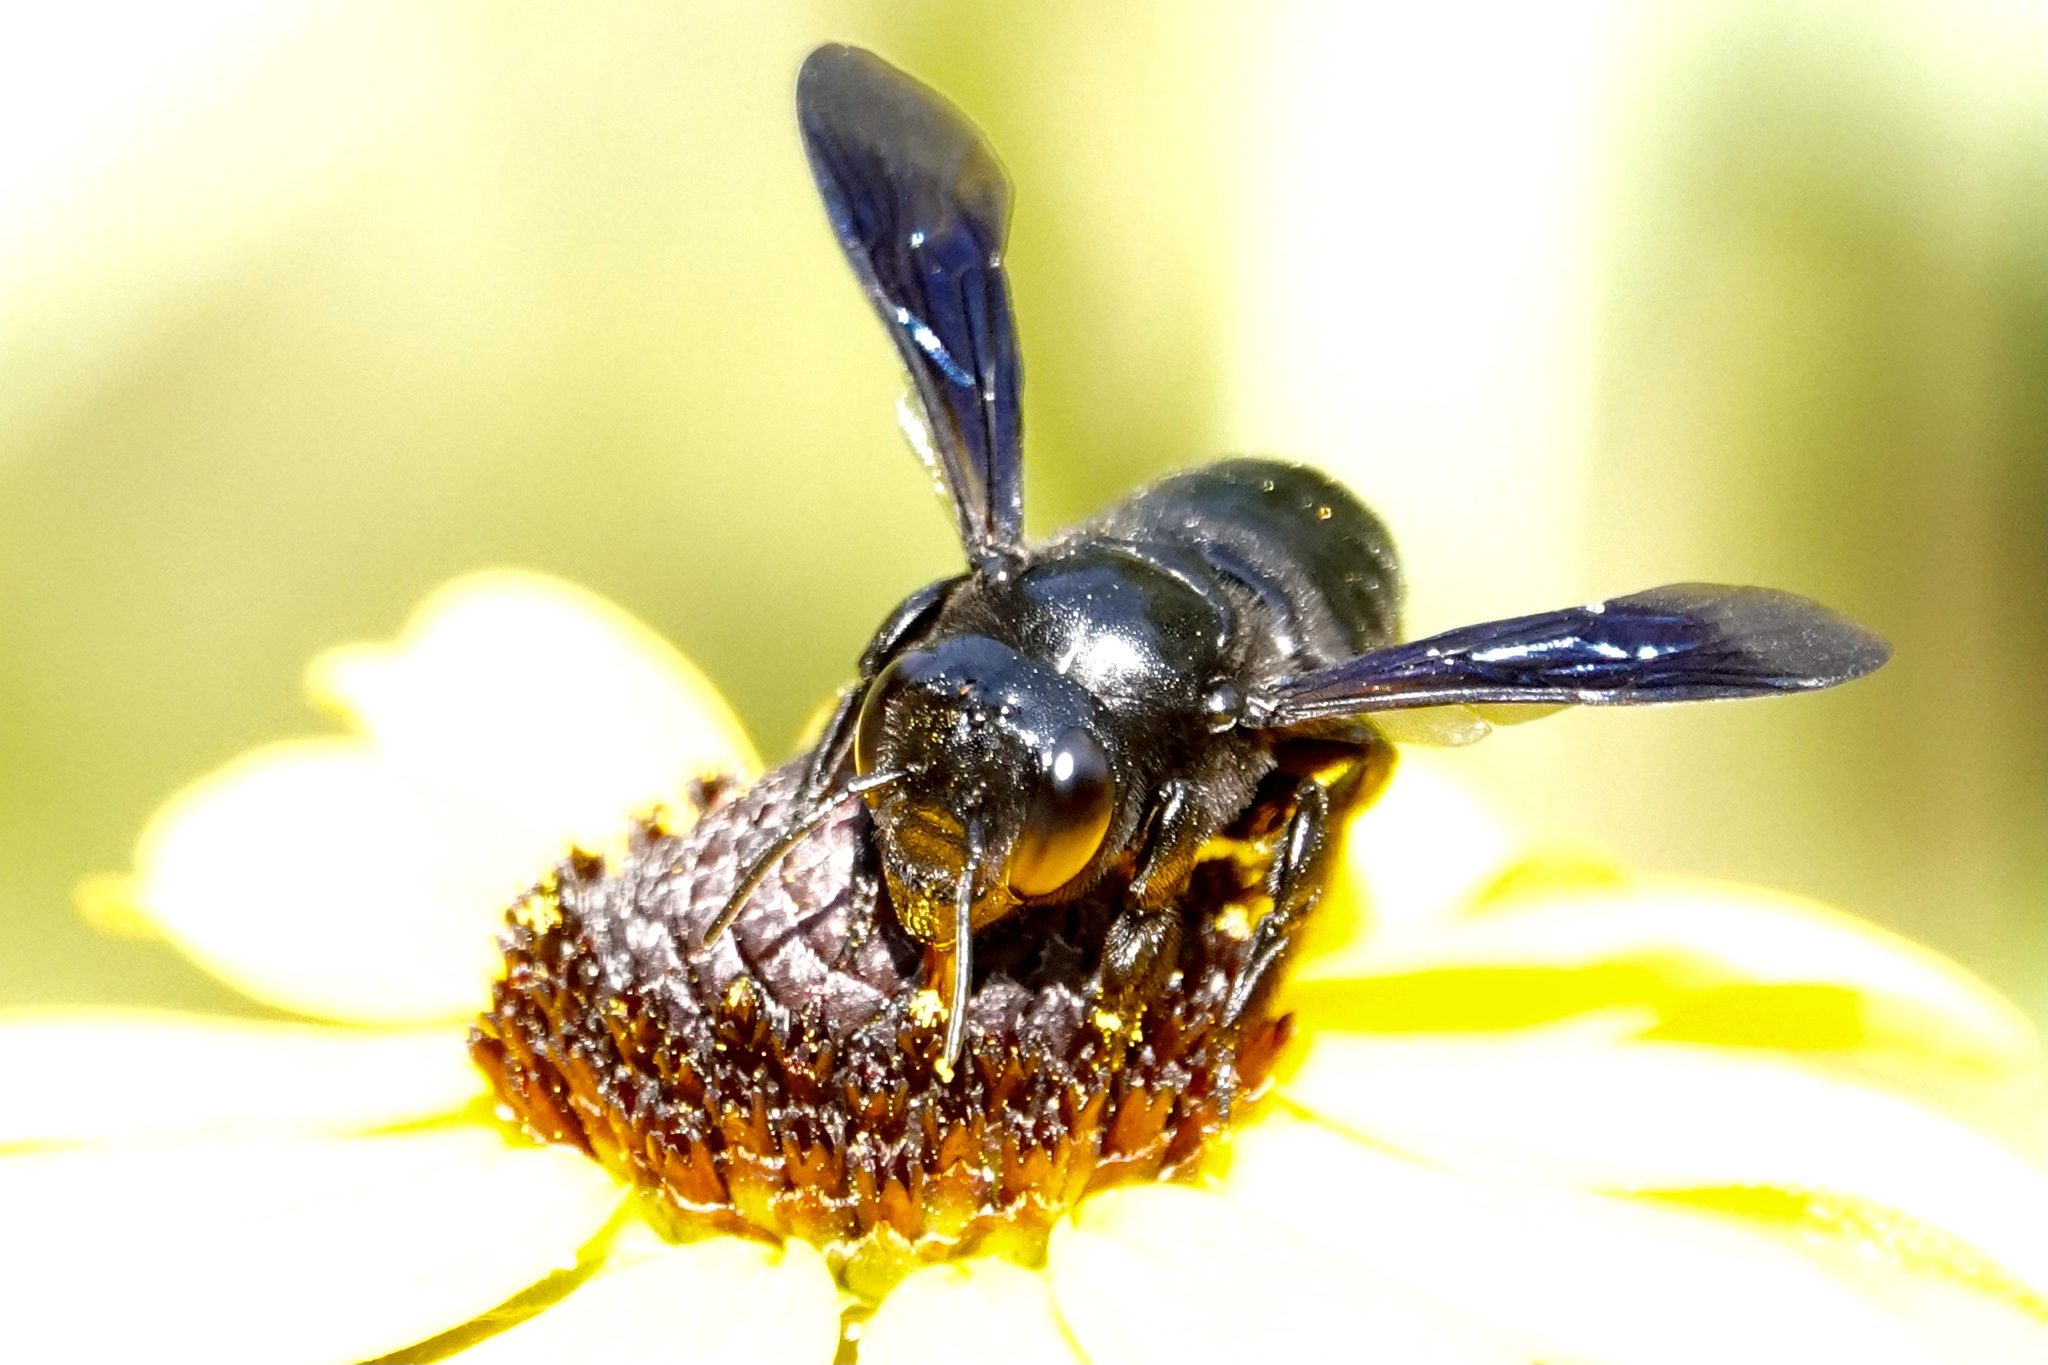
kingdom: Animalia
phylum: Arthropoda
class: Insecta
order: Hymenoptera
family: Megachilidae
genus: Megachile
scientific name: Megachile xylocopoides
